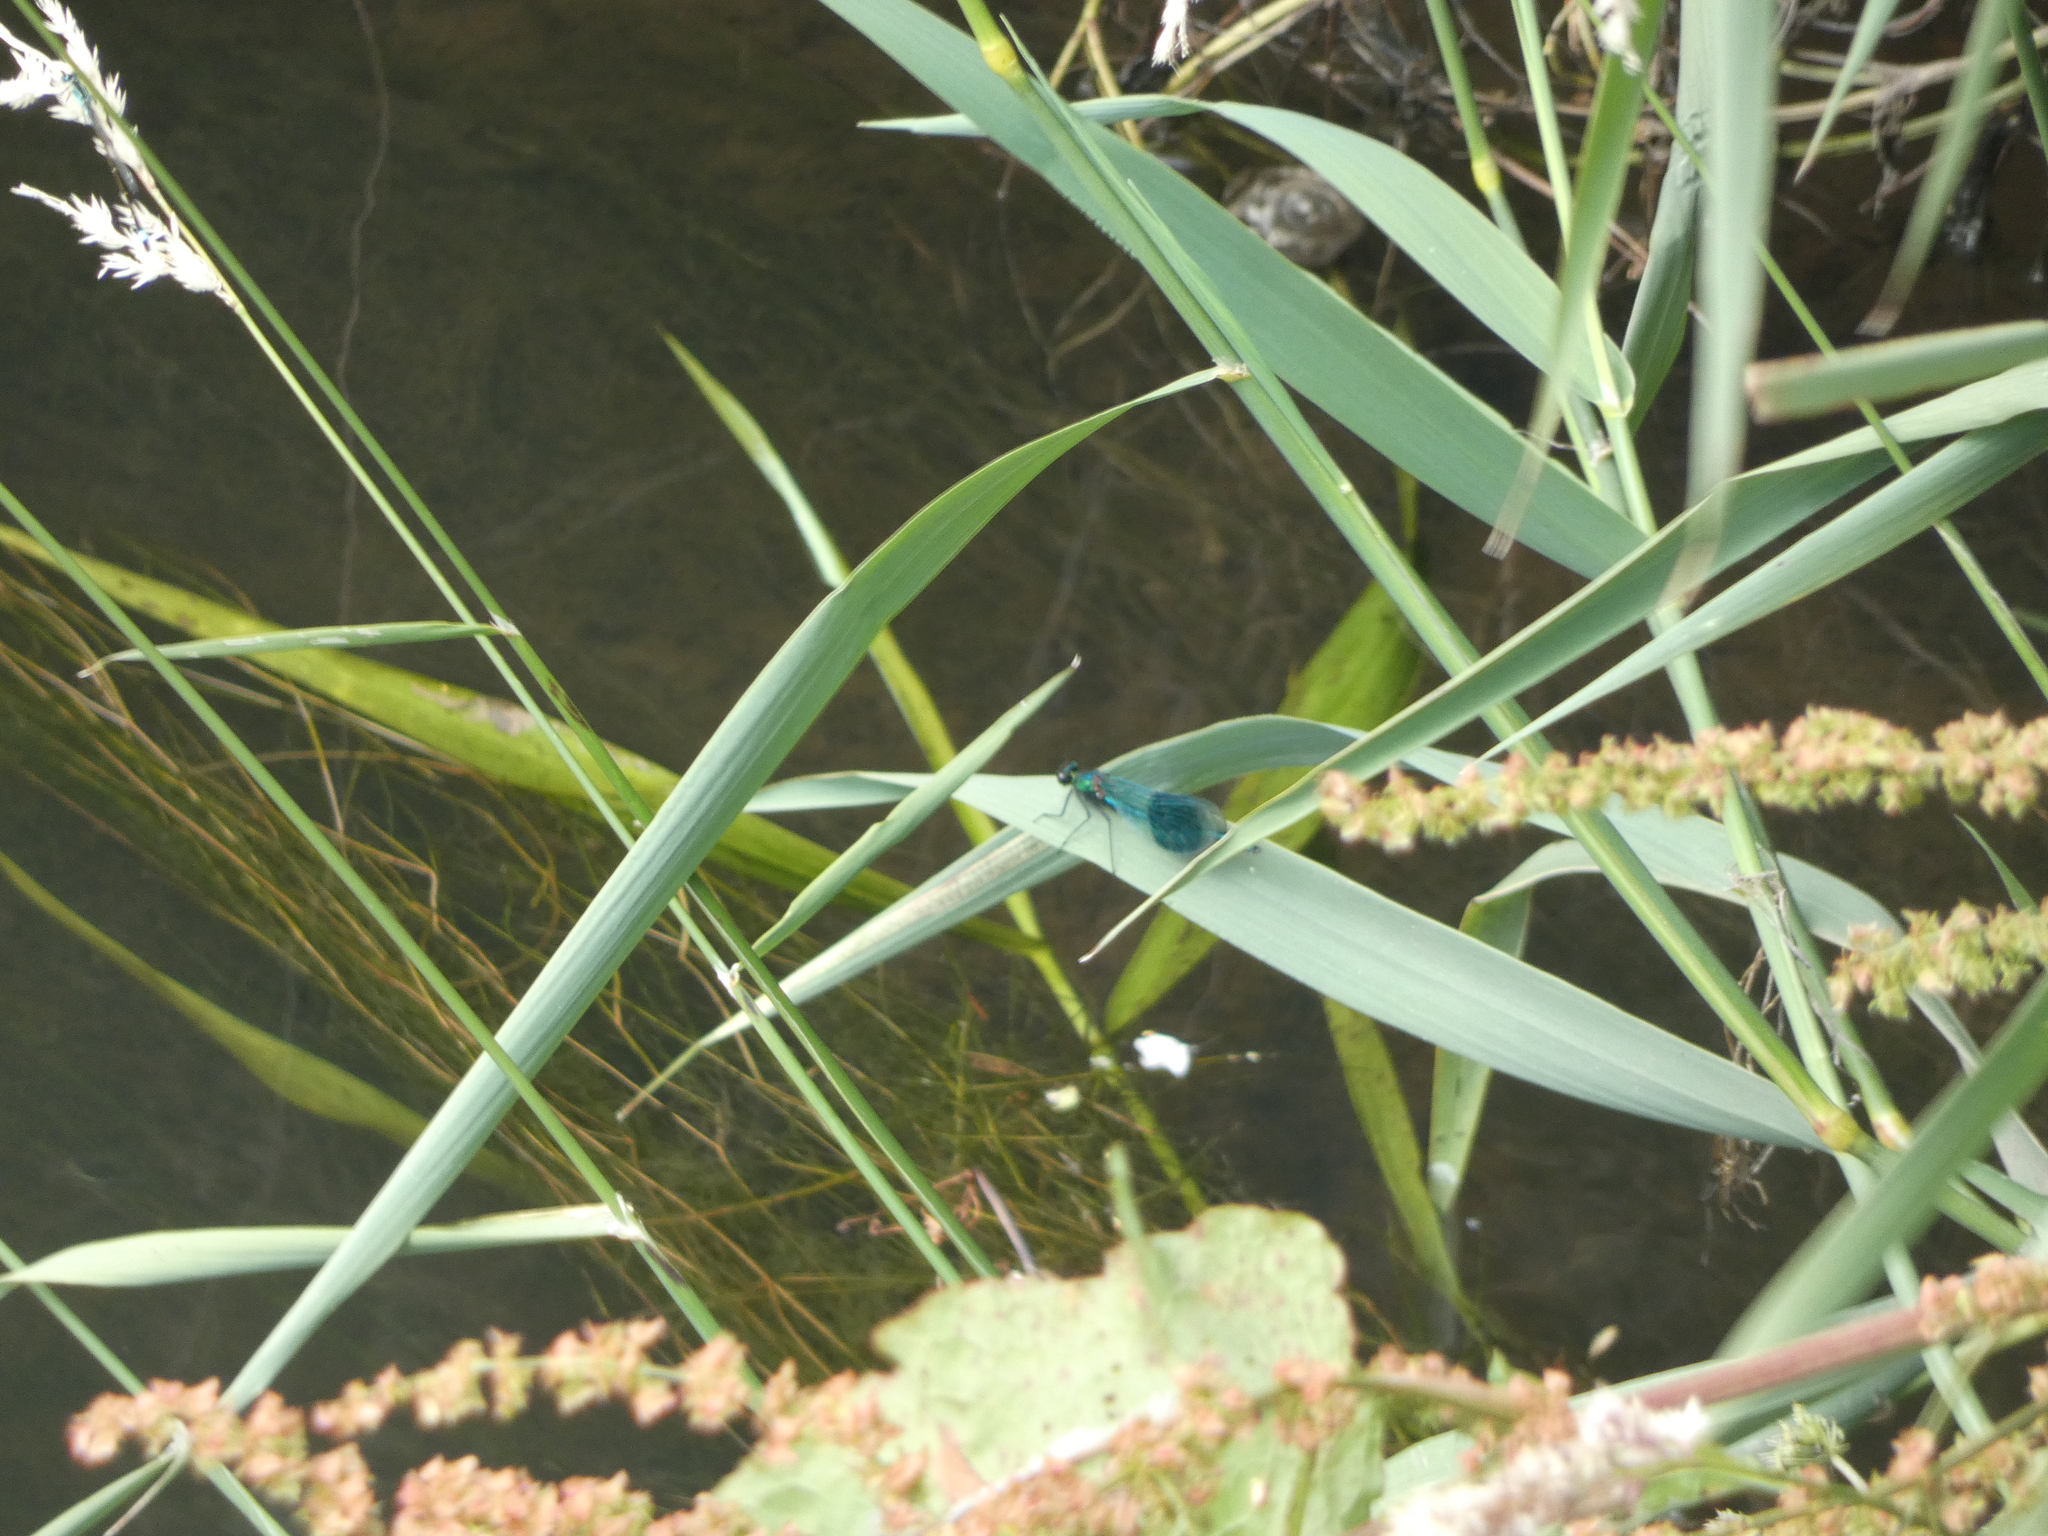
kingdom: Animalia
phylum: Arthropoda
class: Insecta
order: Odonata
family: Calopterygidae
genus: Calopteryx
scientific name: Calopteryx splendens
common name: Banded demoiselle
